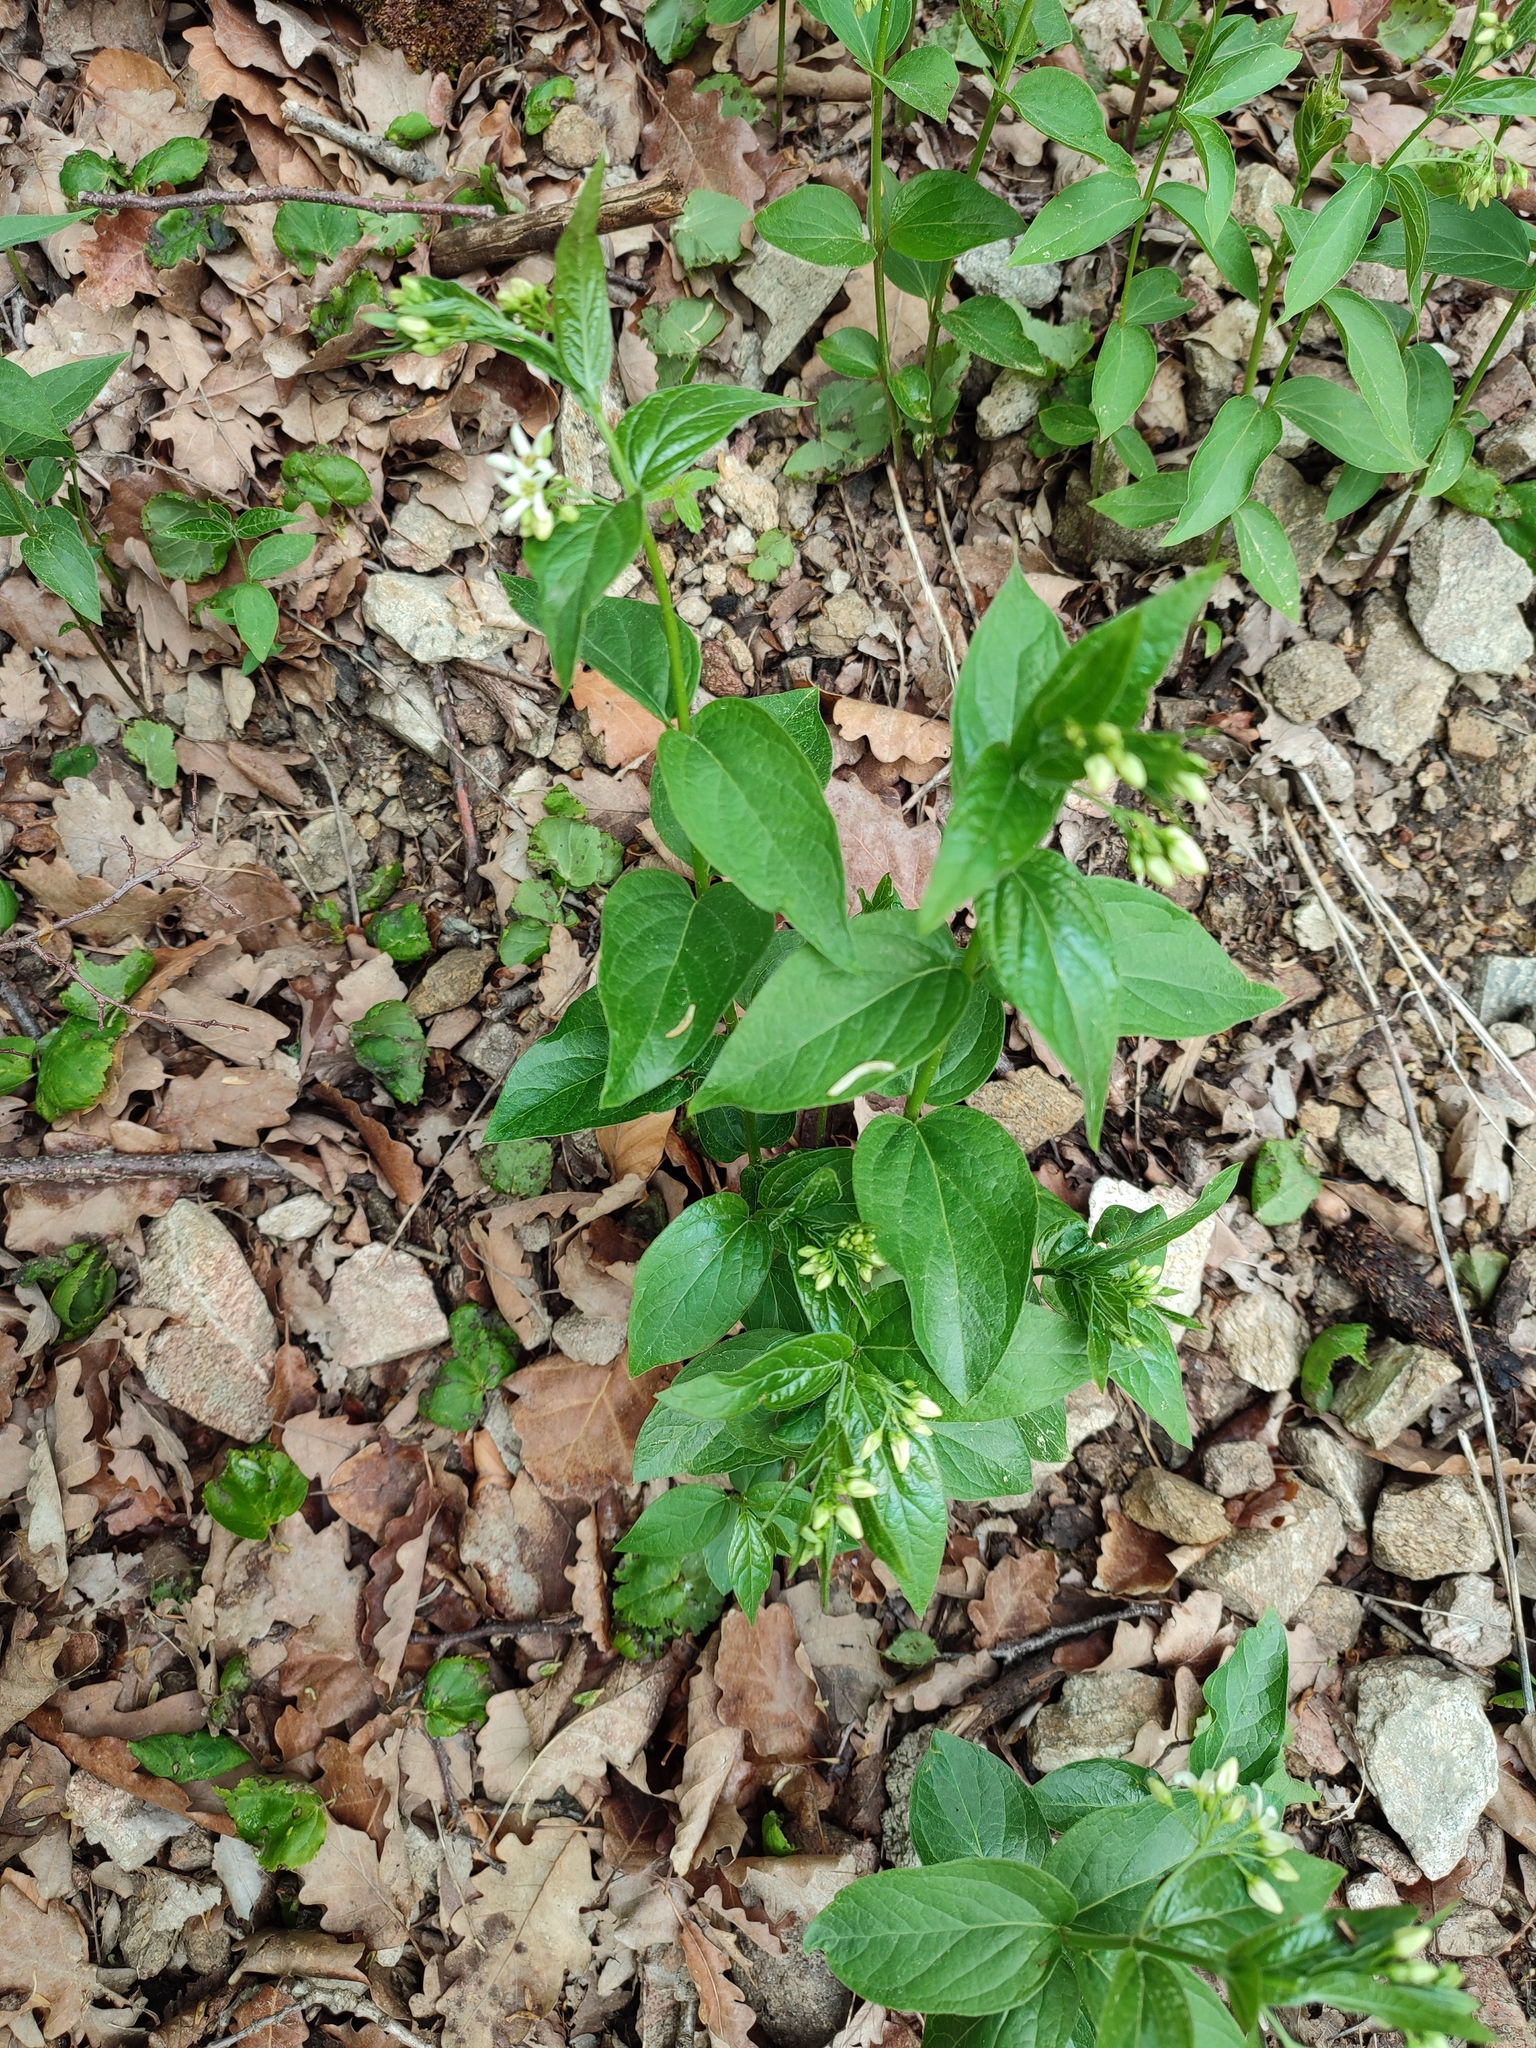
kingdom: Plantae
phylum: Tracheophyta
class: Magnoliopsida
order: Gentianales
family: Apocynaceae
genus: Vincetoxicum
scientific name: Vincetoxicum hirundinaria
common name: White swallowwort
